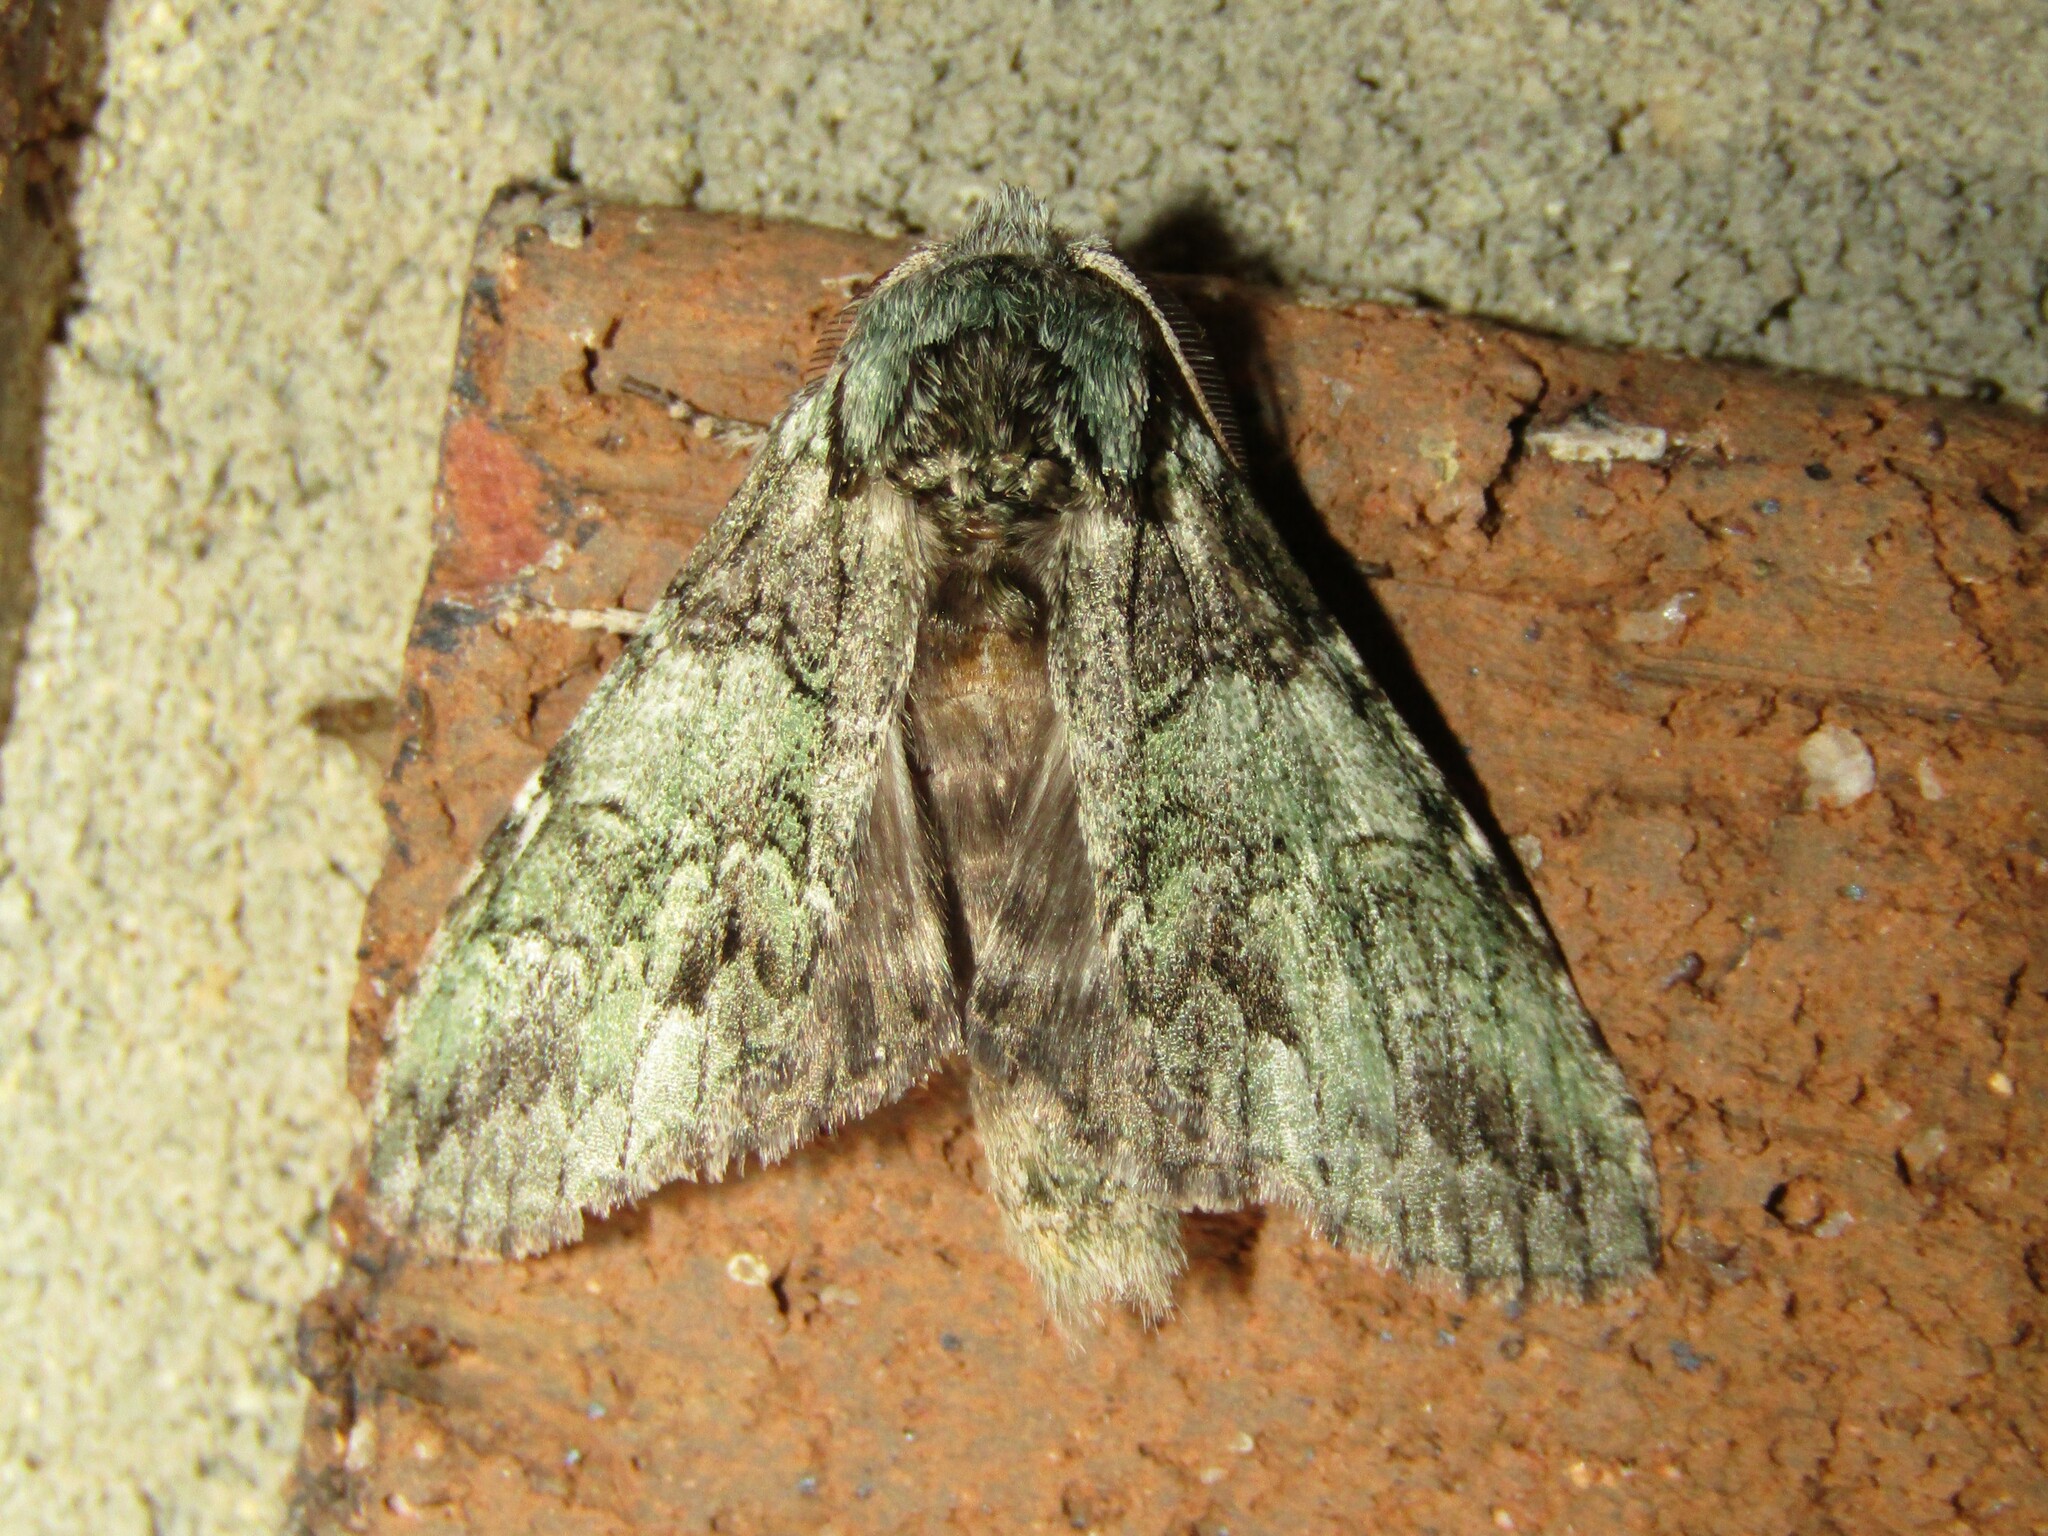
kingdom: Animalia
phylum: Arthropoda
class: Insecta
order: Lepidoptera
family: Notodontidae
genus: Macrurocampa
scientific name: Macrurocampa marthesia
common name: Mottled prominent
